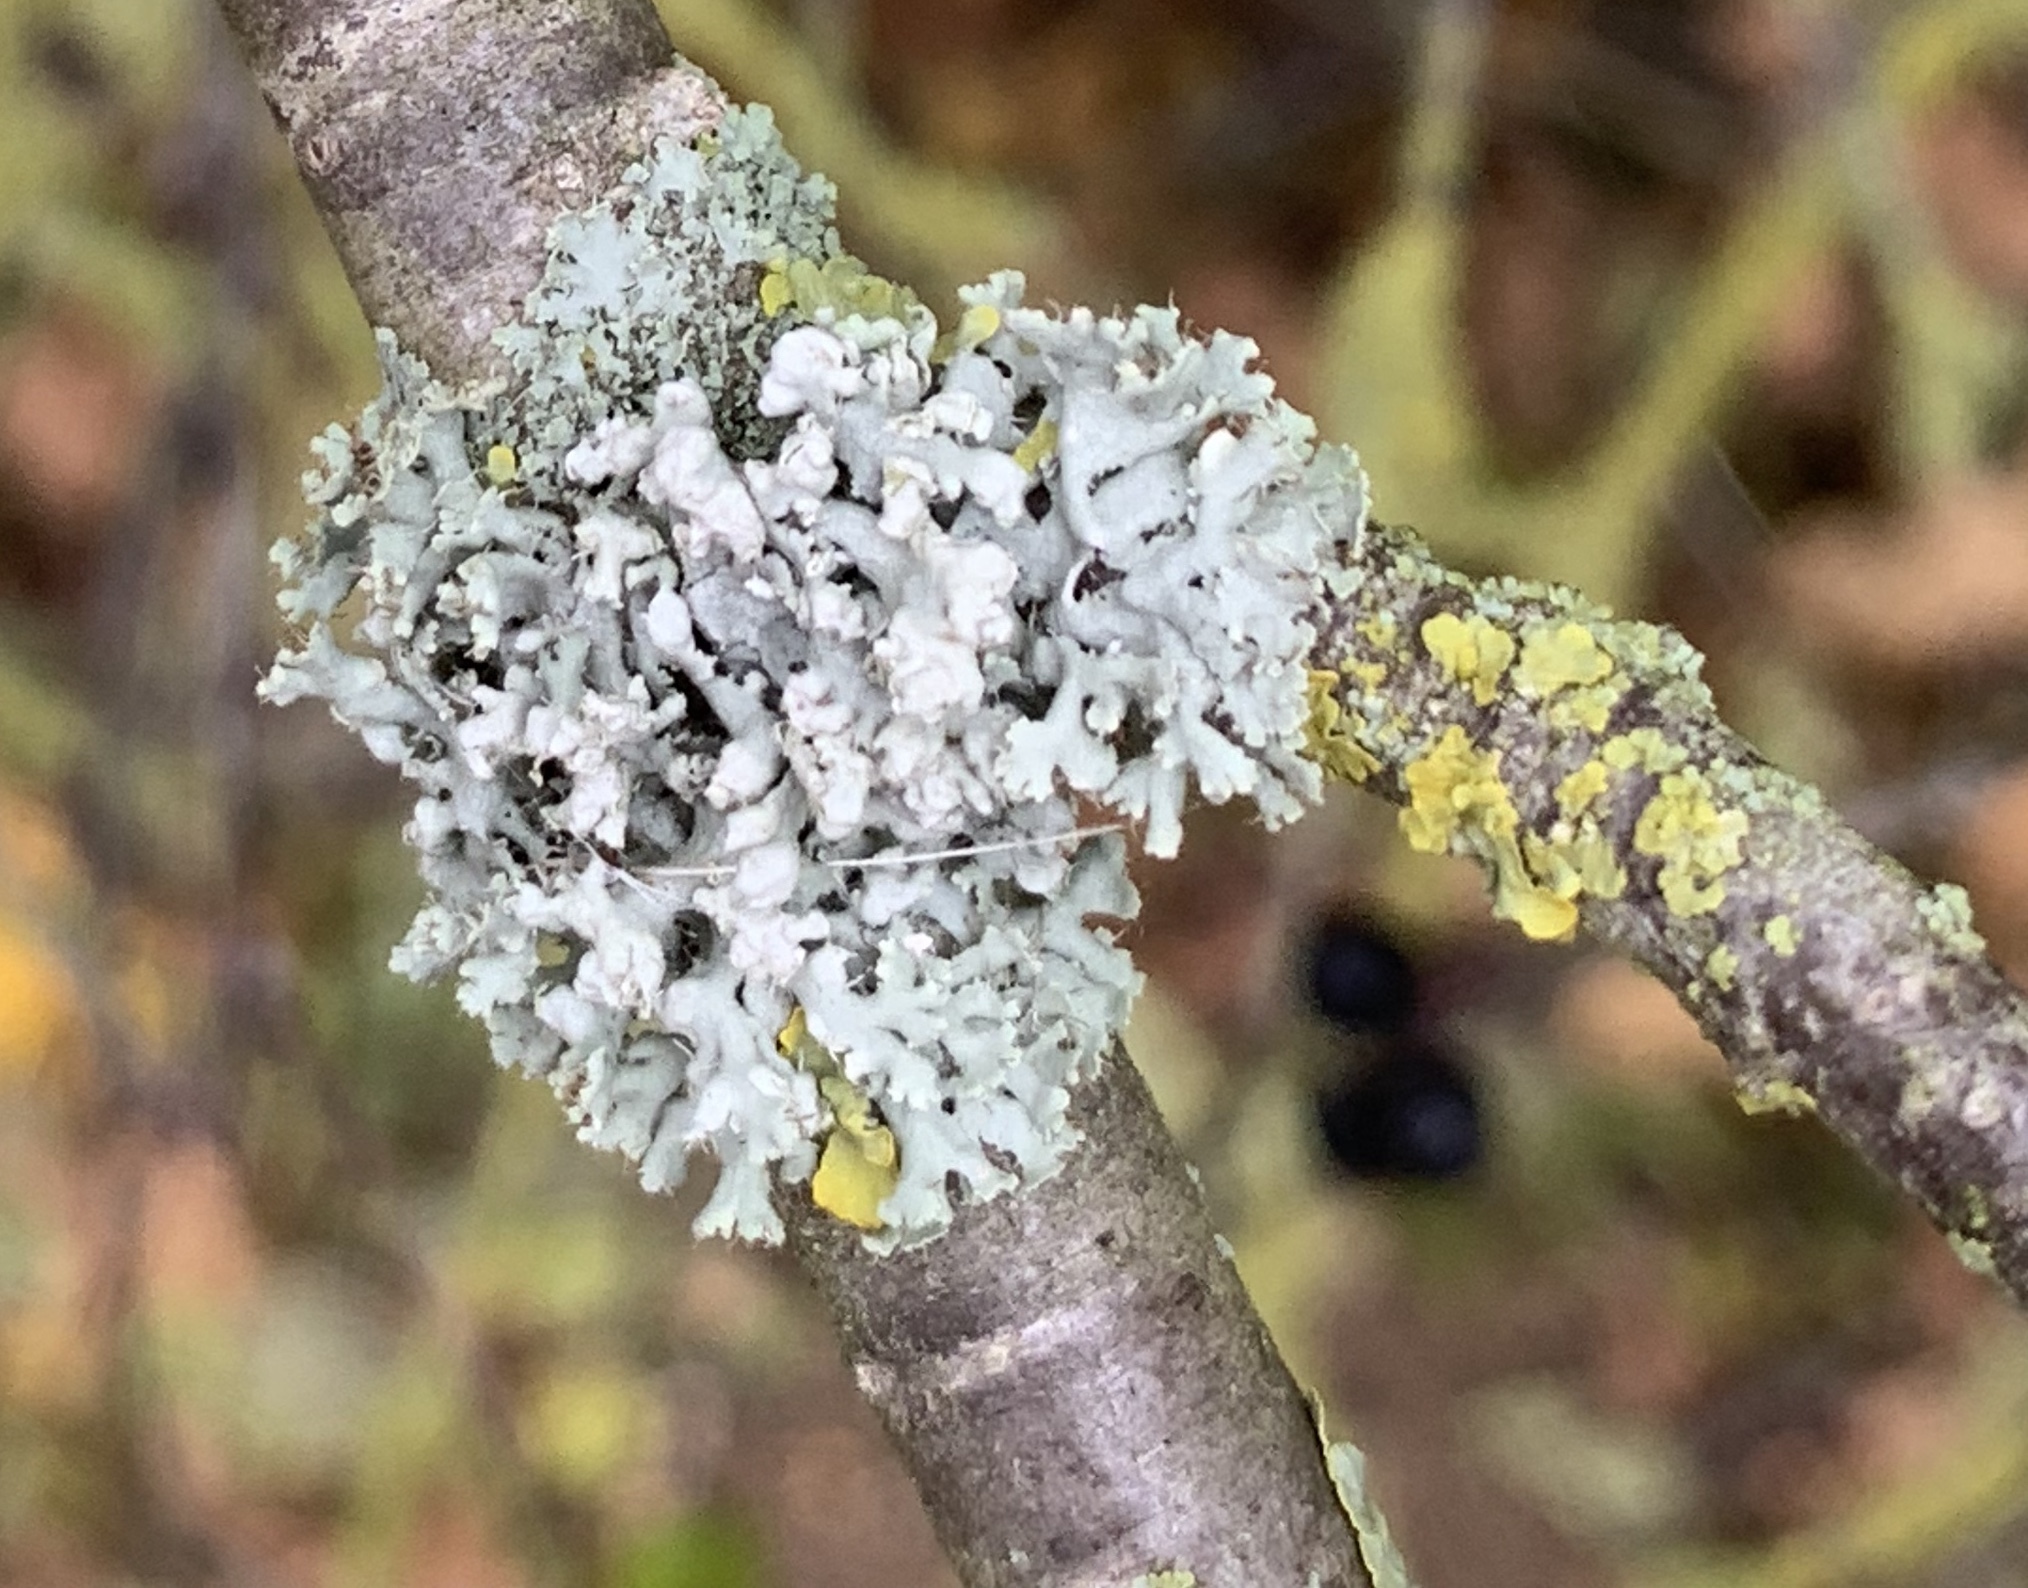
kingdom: Fungi
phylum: Ascomycota
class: Lecanoromycetes
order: Caliciales
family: Physciaceae
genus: Physcia
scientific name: Physcia adscendens
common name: Hooded rosette lichen
